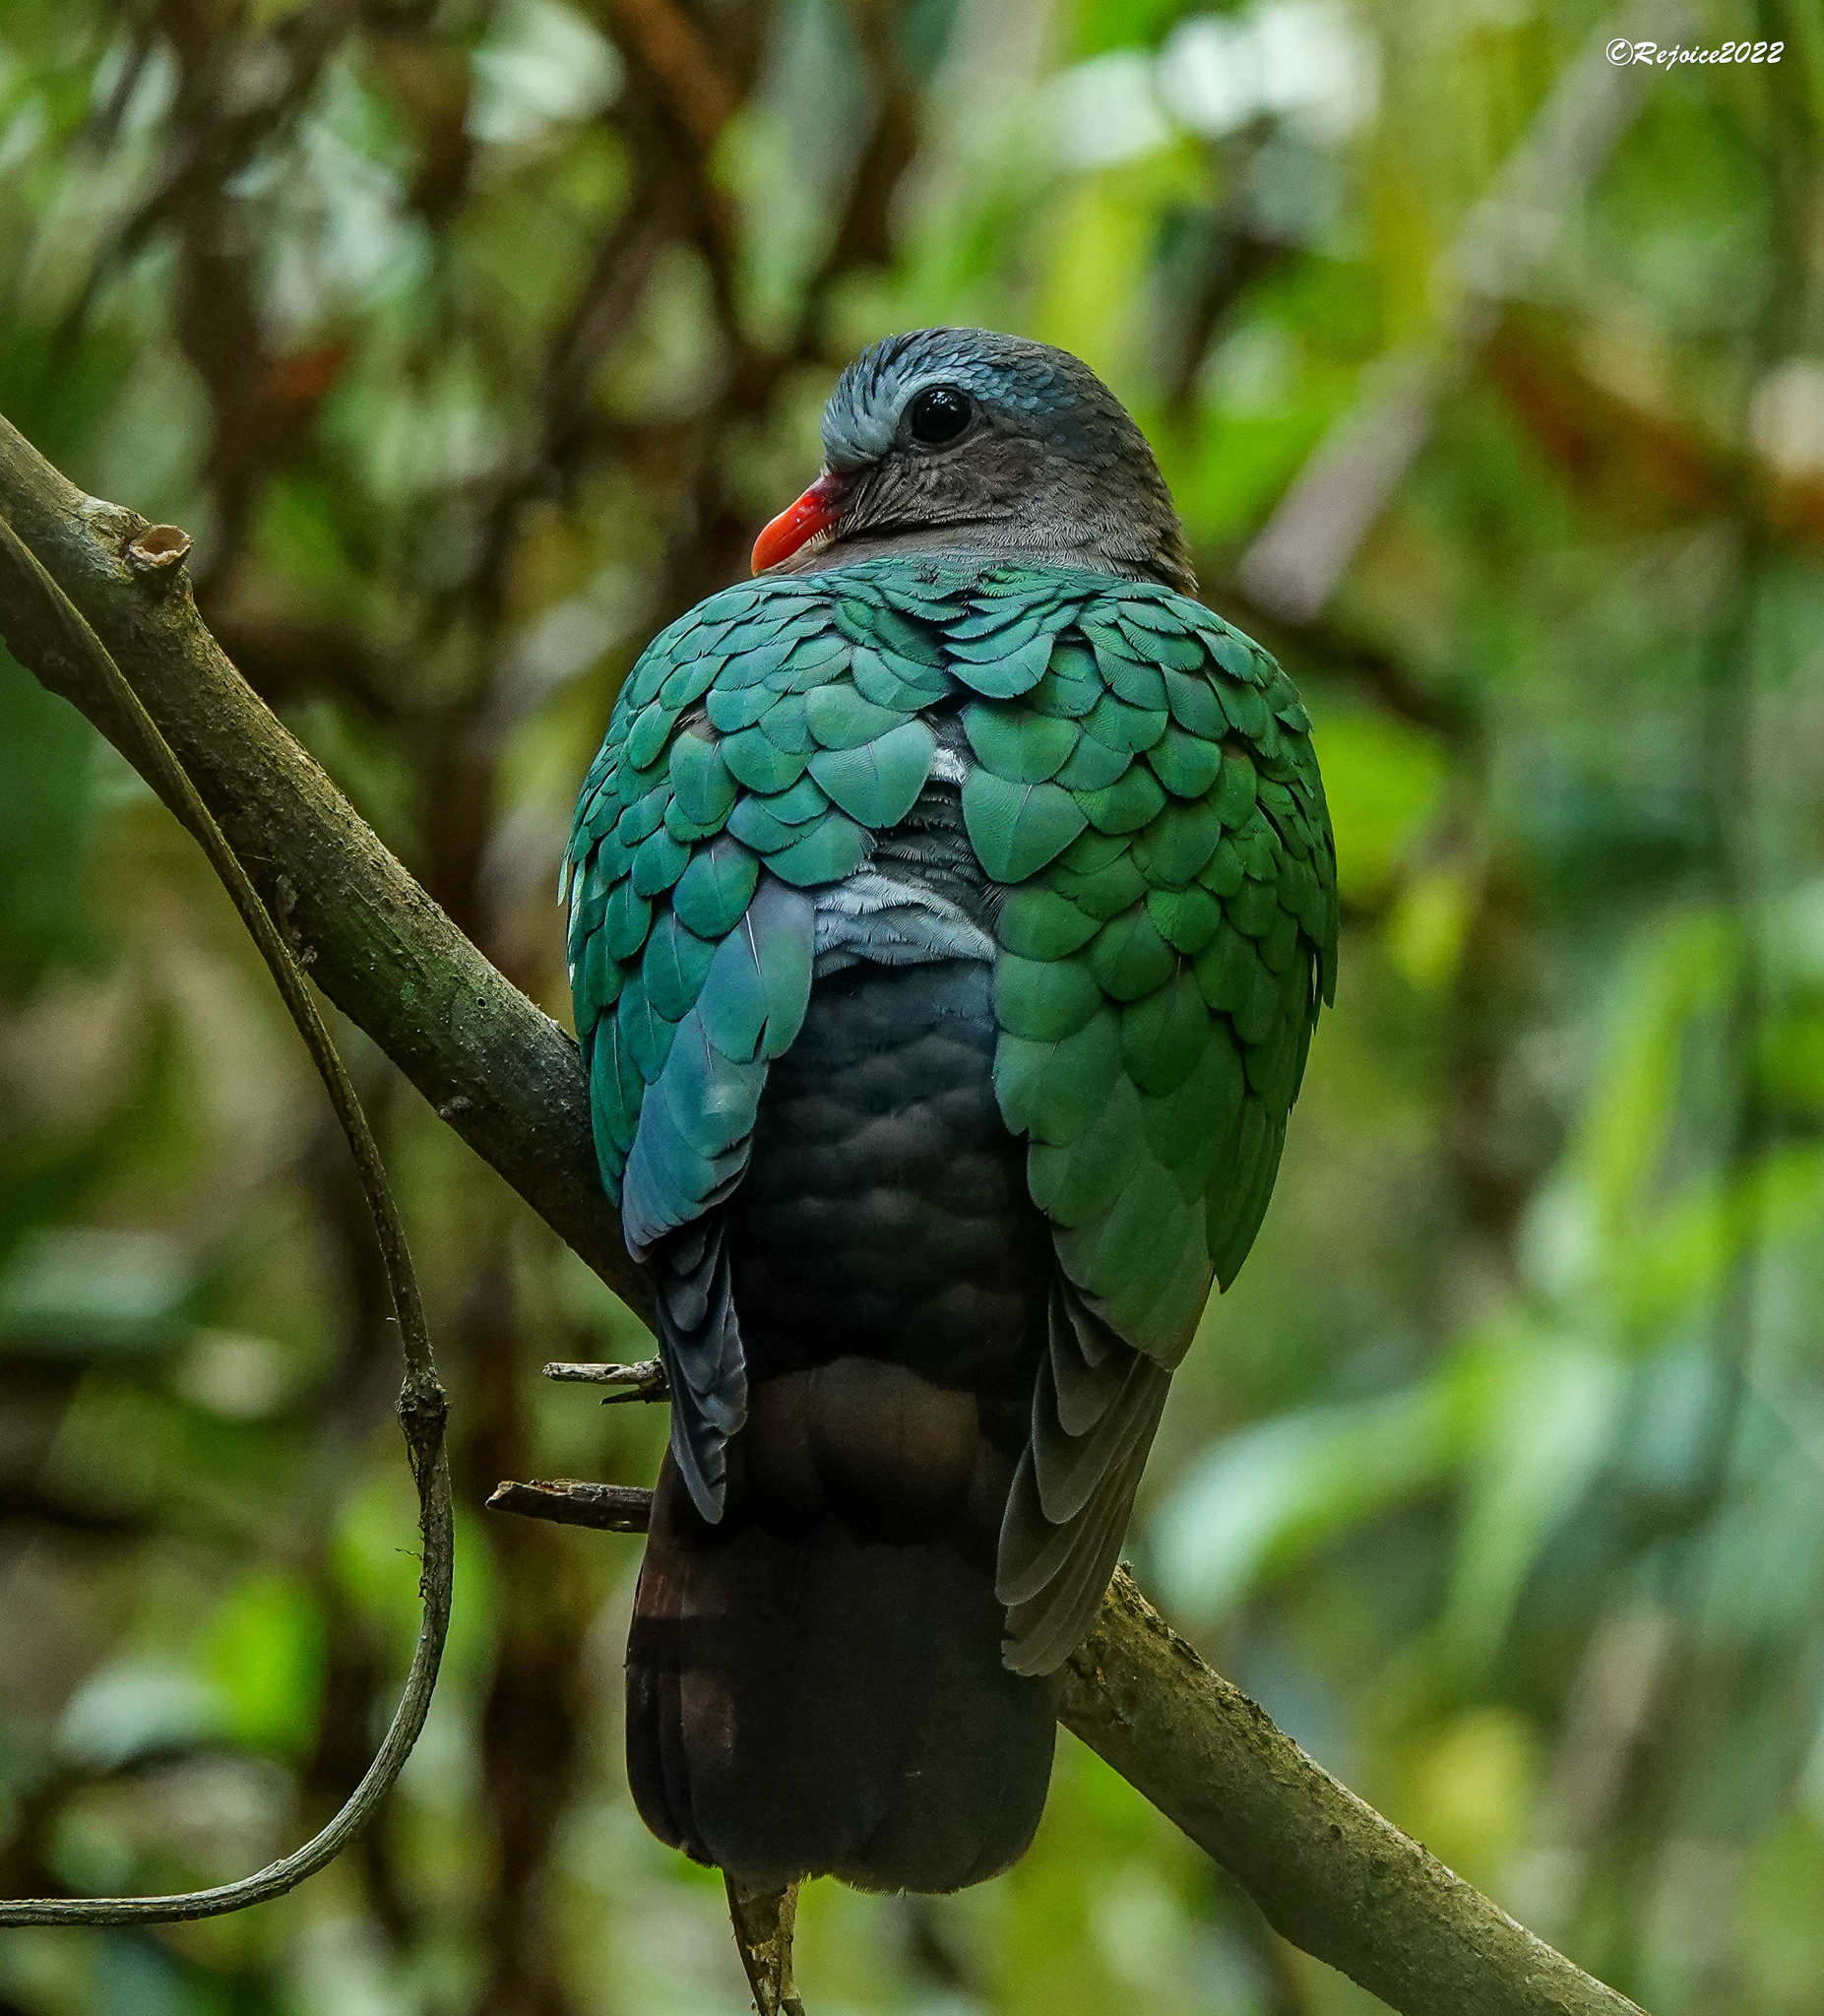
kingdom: Animalia
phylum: Chordata
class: Aves
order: Columbiformes
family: Columbidae
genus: Chalcophaps
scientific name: Chalcophaps indica
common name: Common emerald dove
